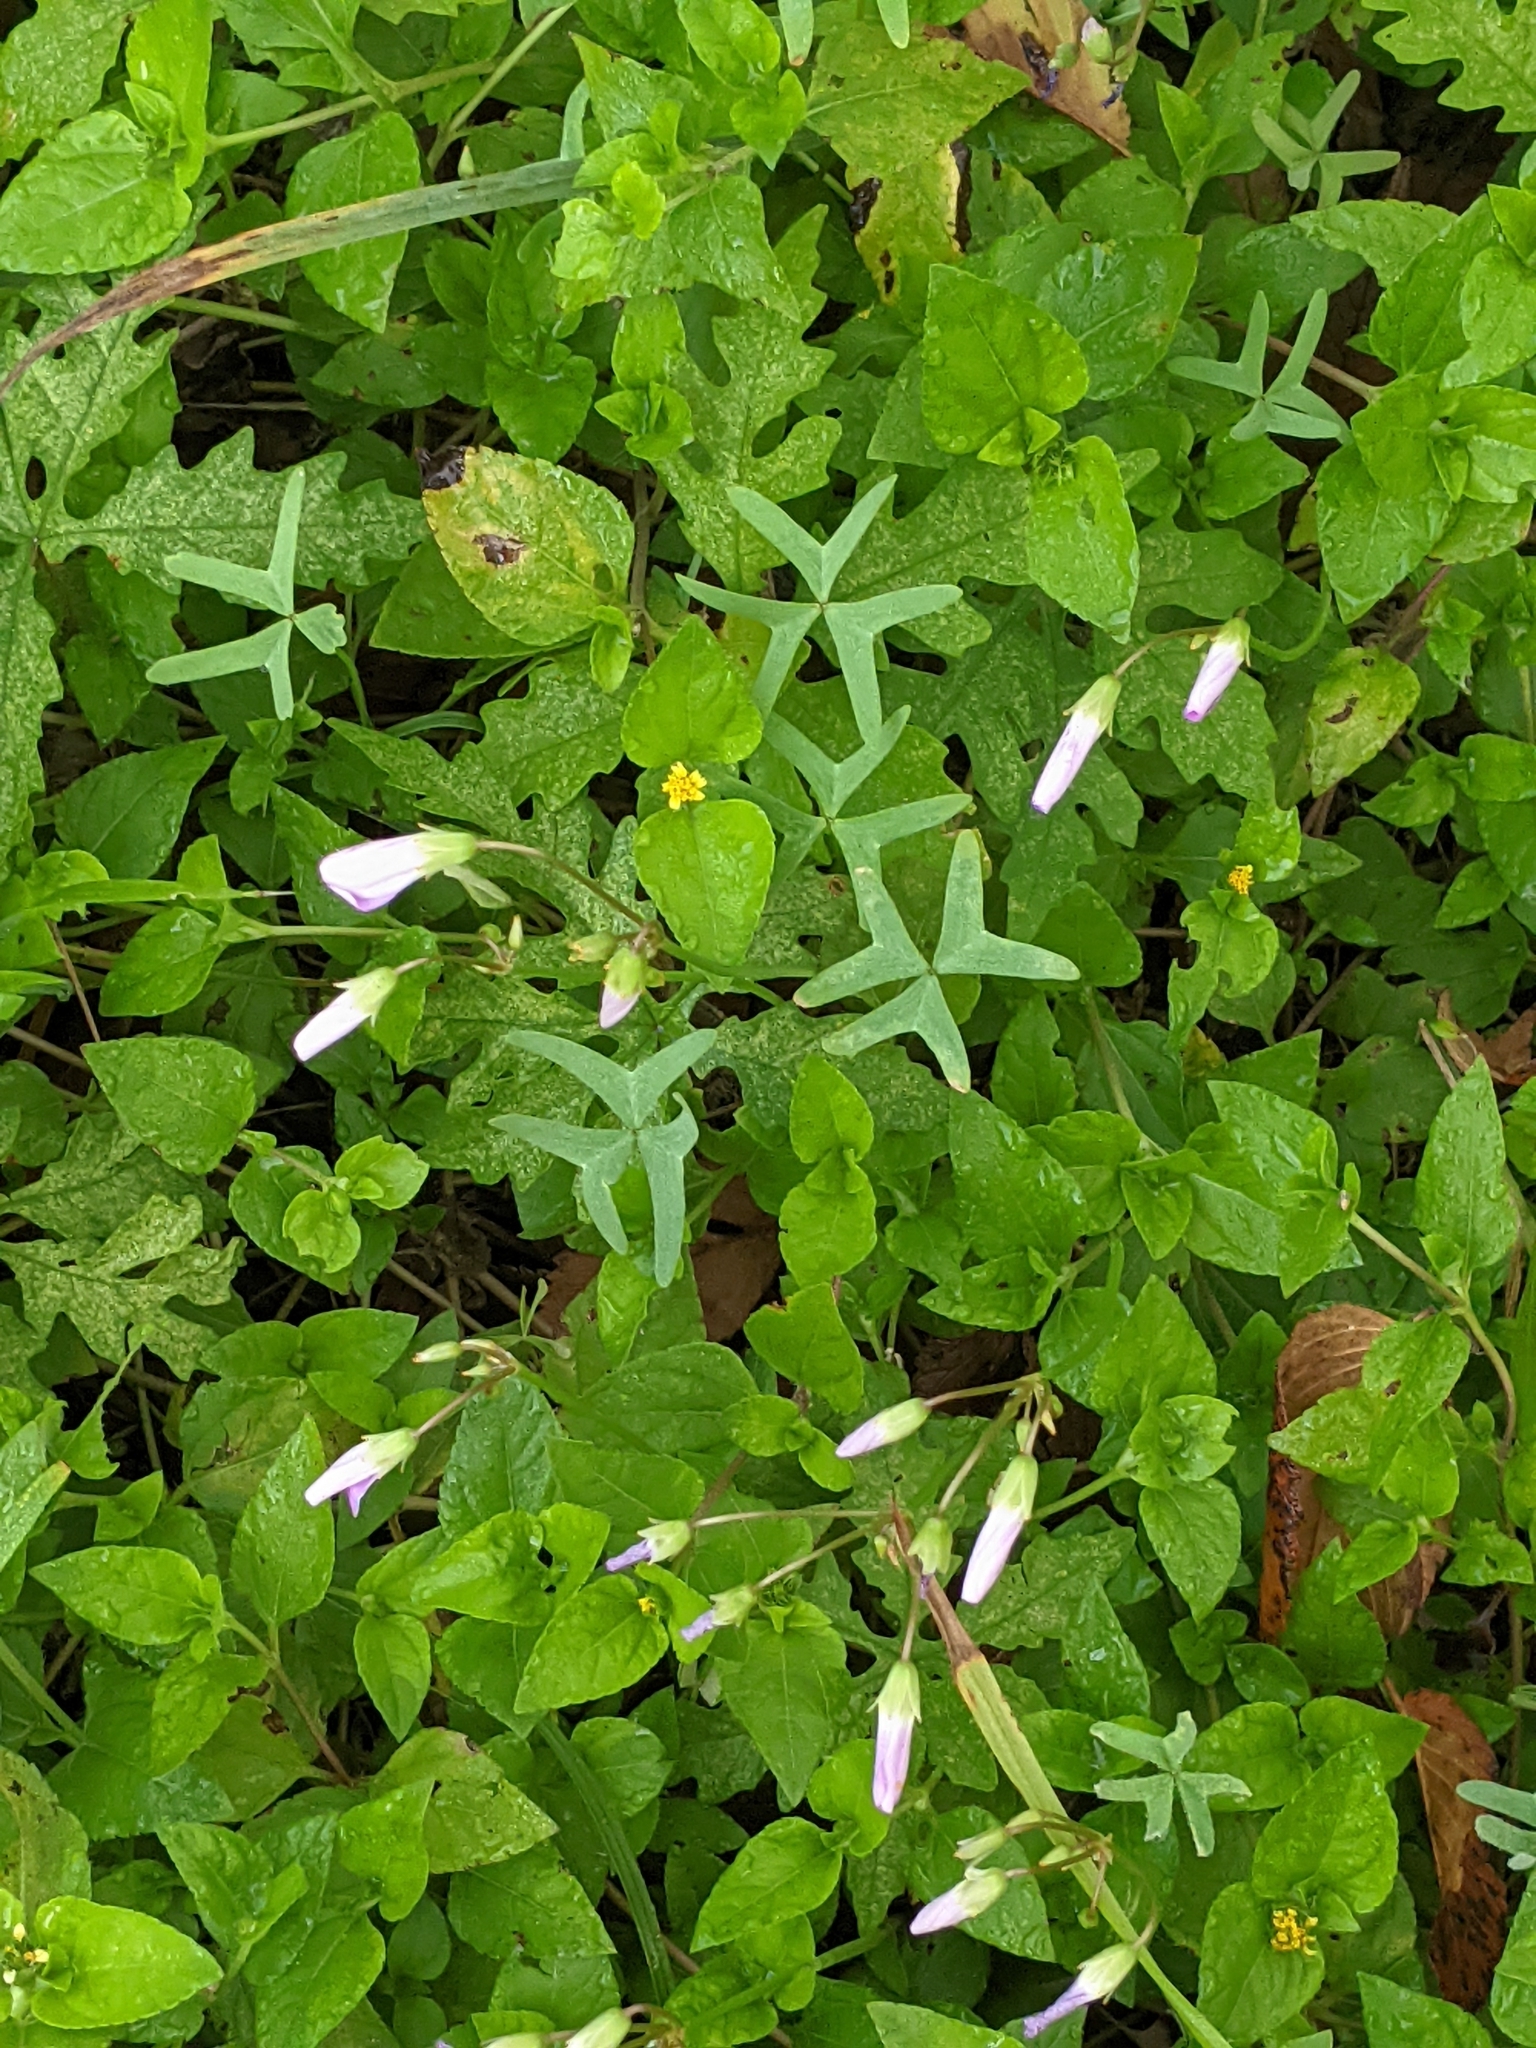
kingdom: Plantae
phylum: Tracheophyta
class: Magnoliopsida
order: Oxalidales
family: Oxalidaceae
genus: Oxalis
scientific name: Oxalis drummondii
